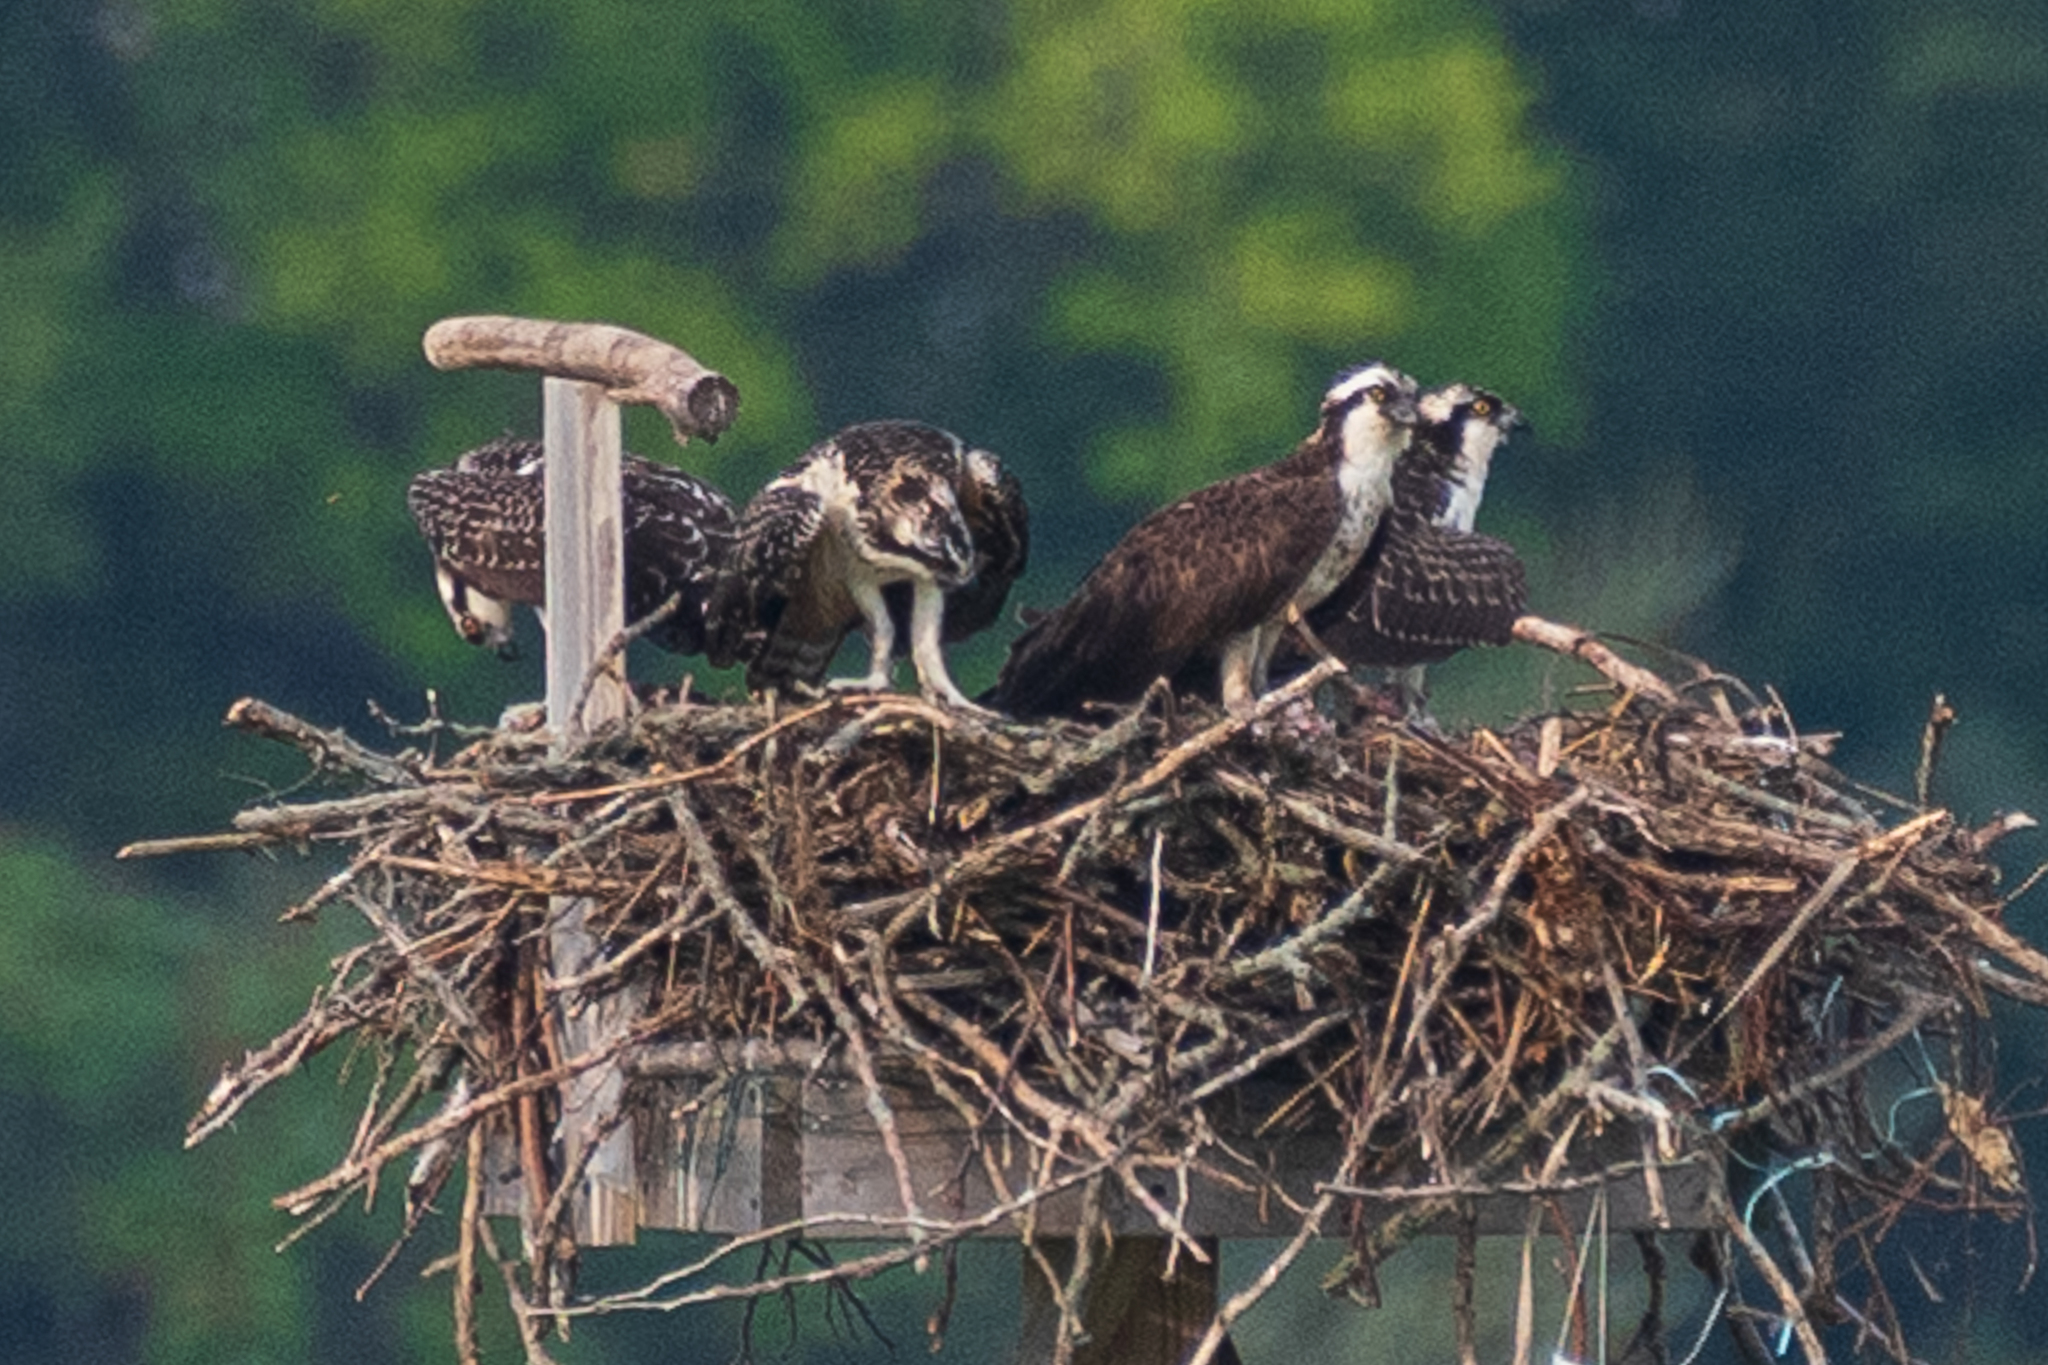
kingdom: Animalia
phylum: Chordata
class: Aves
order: Accipitriformes
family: Pandionidae
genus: Pandion
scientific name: Pandion haliaetus
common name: Osprey
